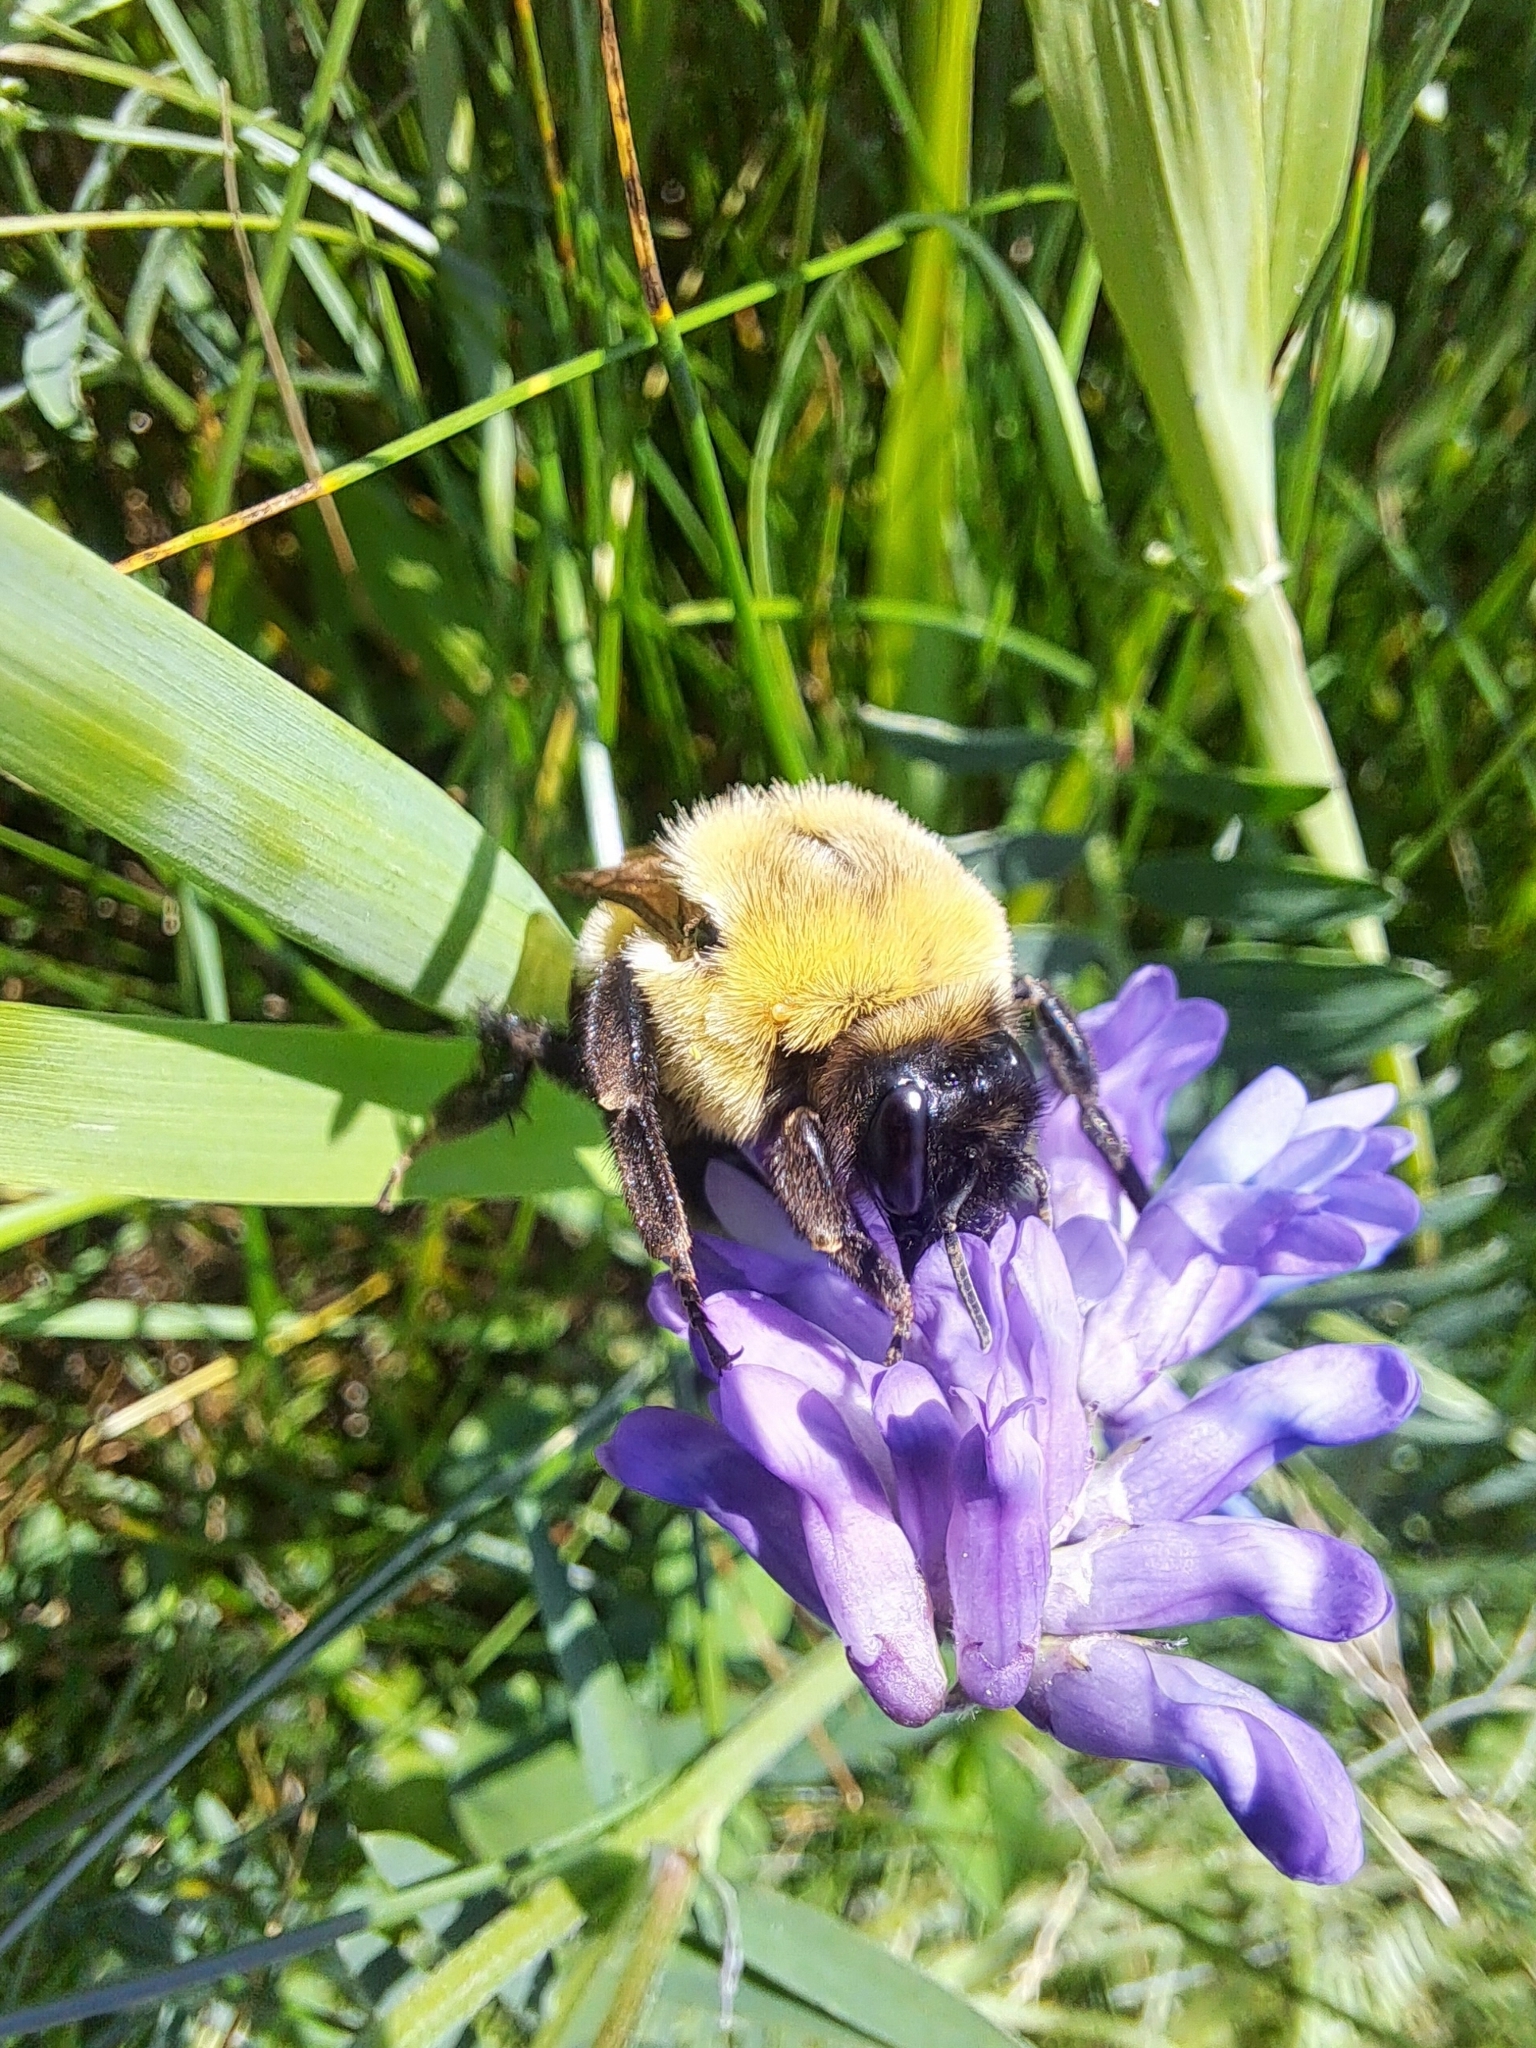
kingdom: Animalia
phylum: Arthropoda
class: Insecta
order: Hymenoptera
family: Apidae
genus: Bombus
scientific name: Bombus impatiens
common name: Common eastern bumble bee
